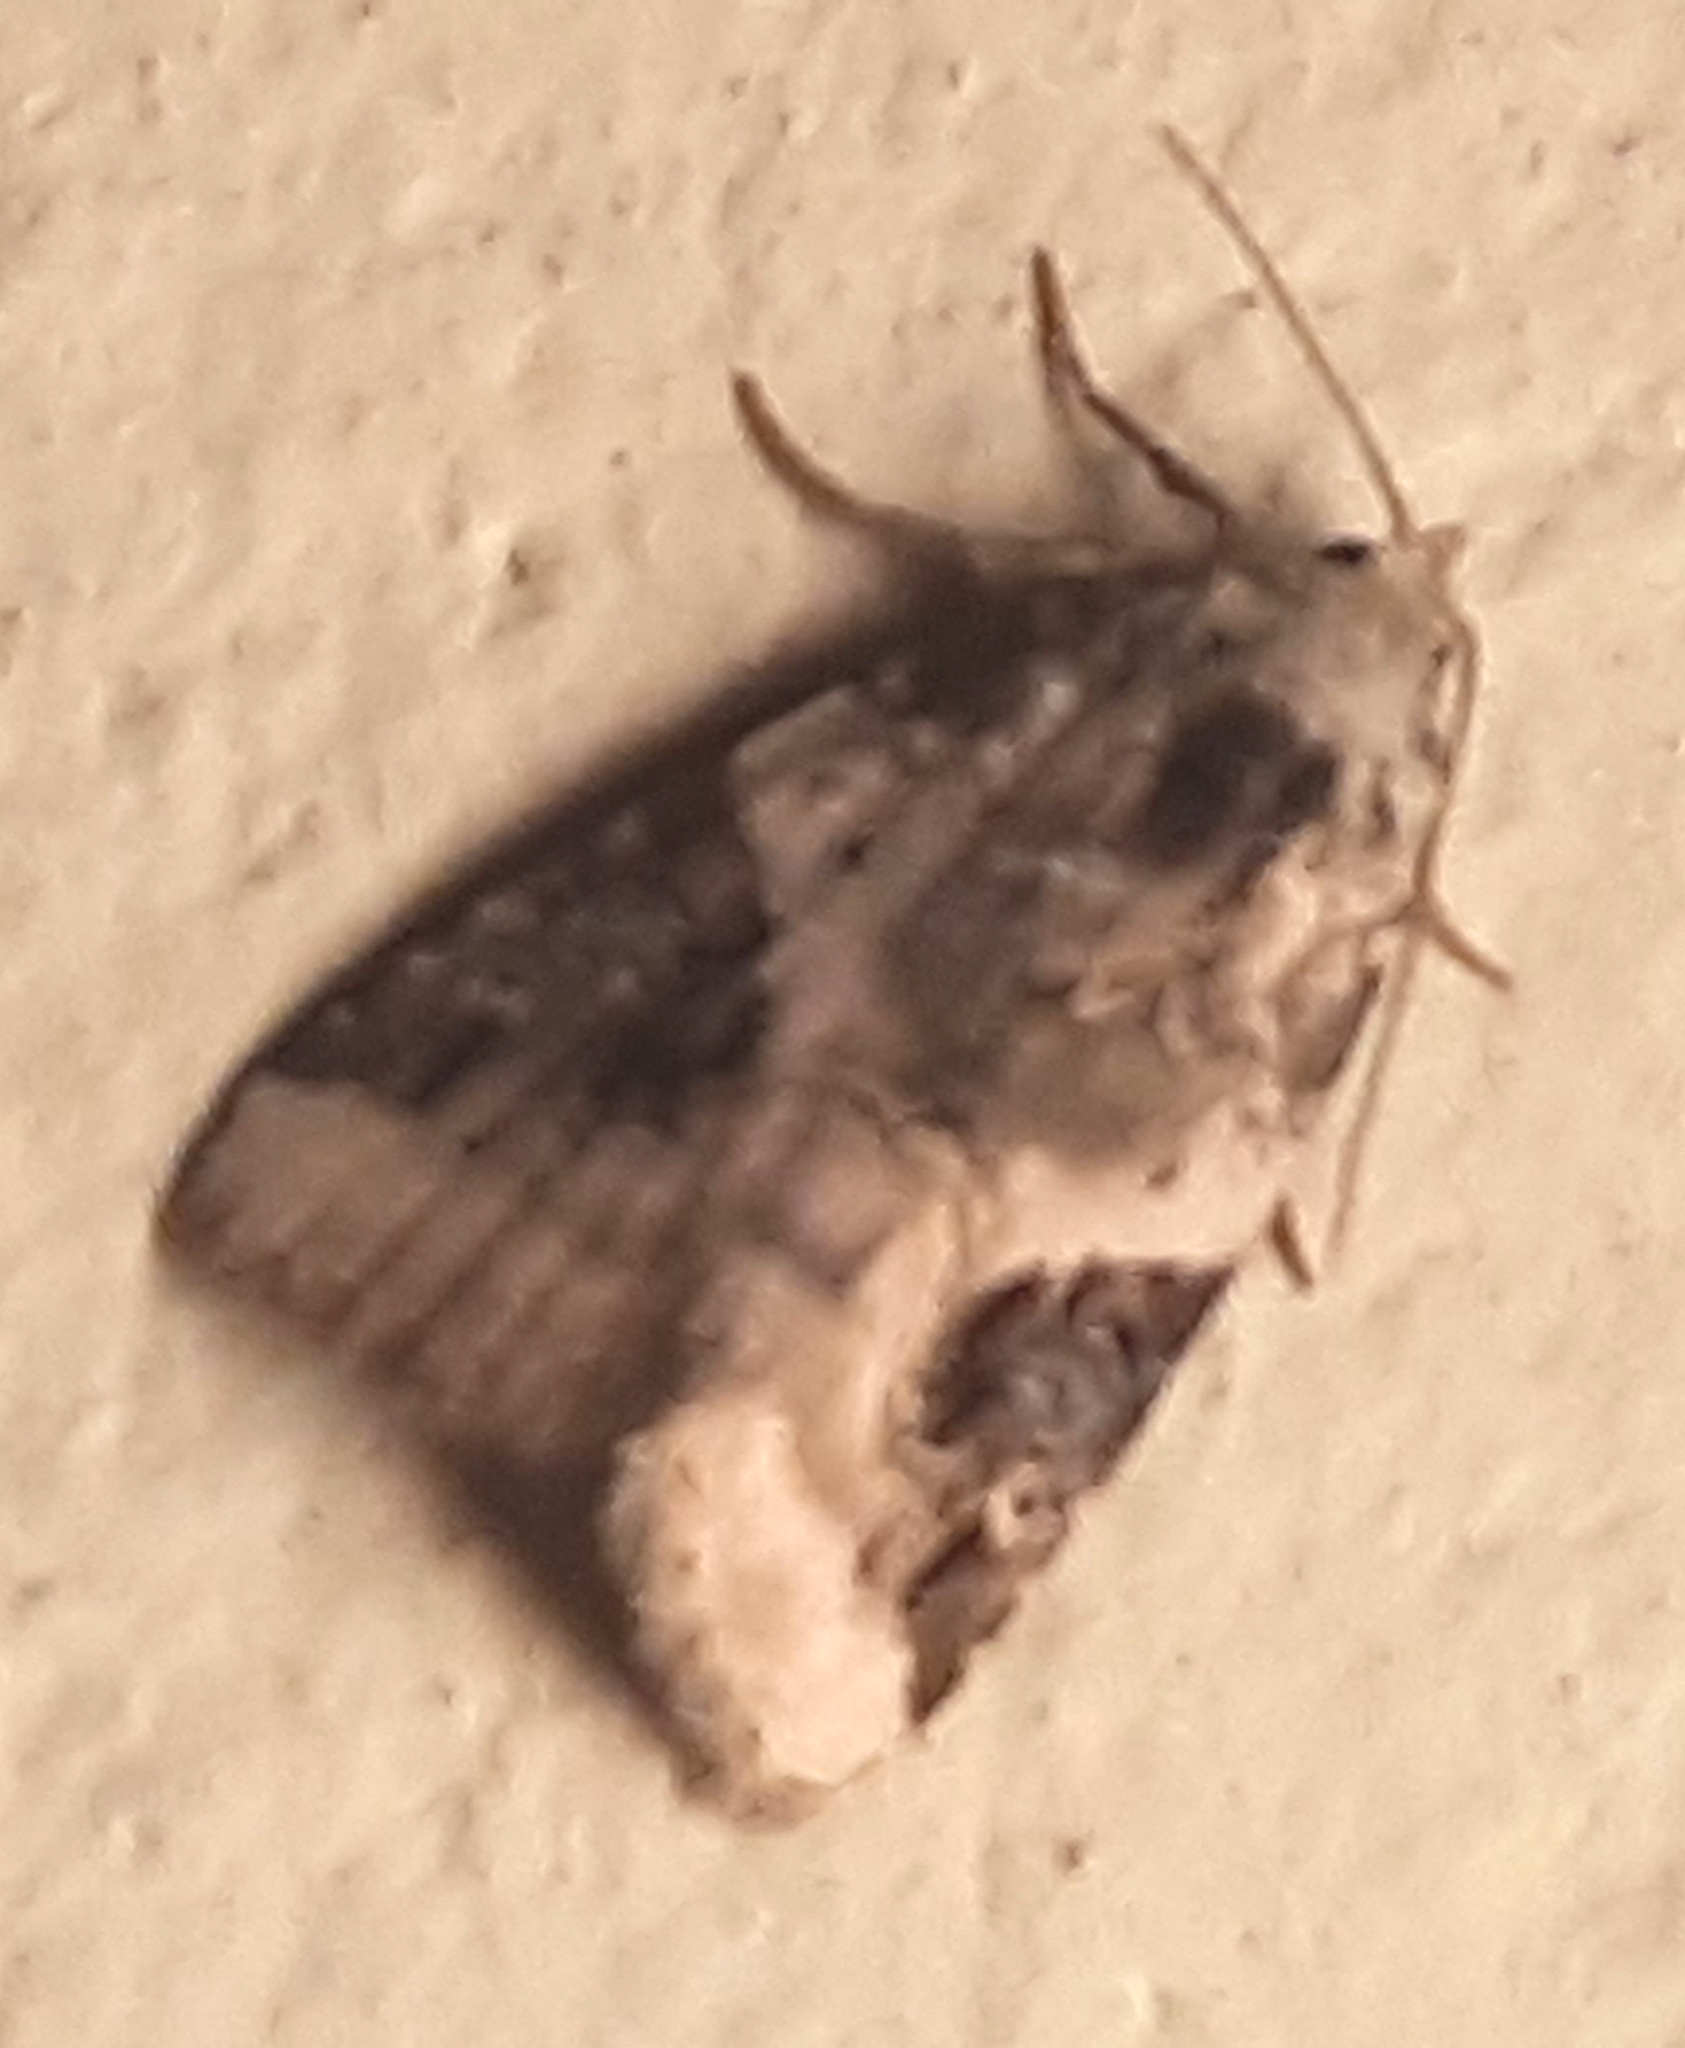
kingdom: Animalia
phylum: Arthropoda
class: Insecta
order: Lepidoptera
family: Noctuidae
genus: Pseudeustrotia
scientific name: Pseudeustrotia candidula
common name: Shining marbled
